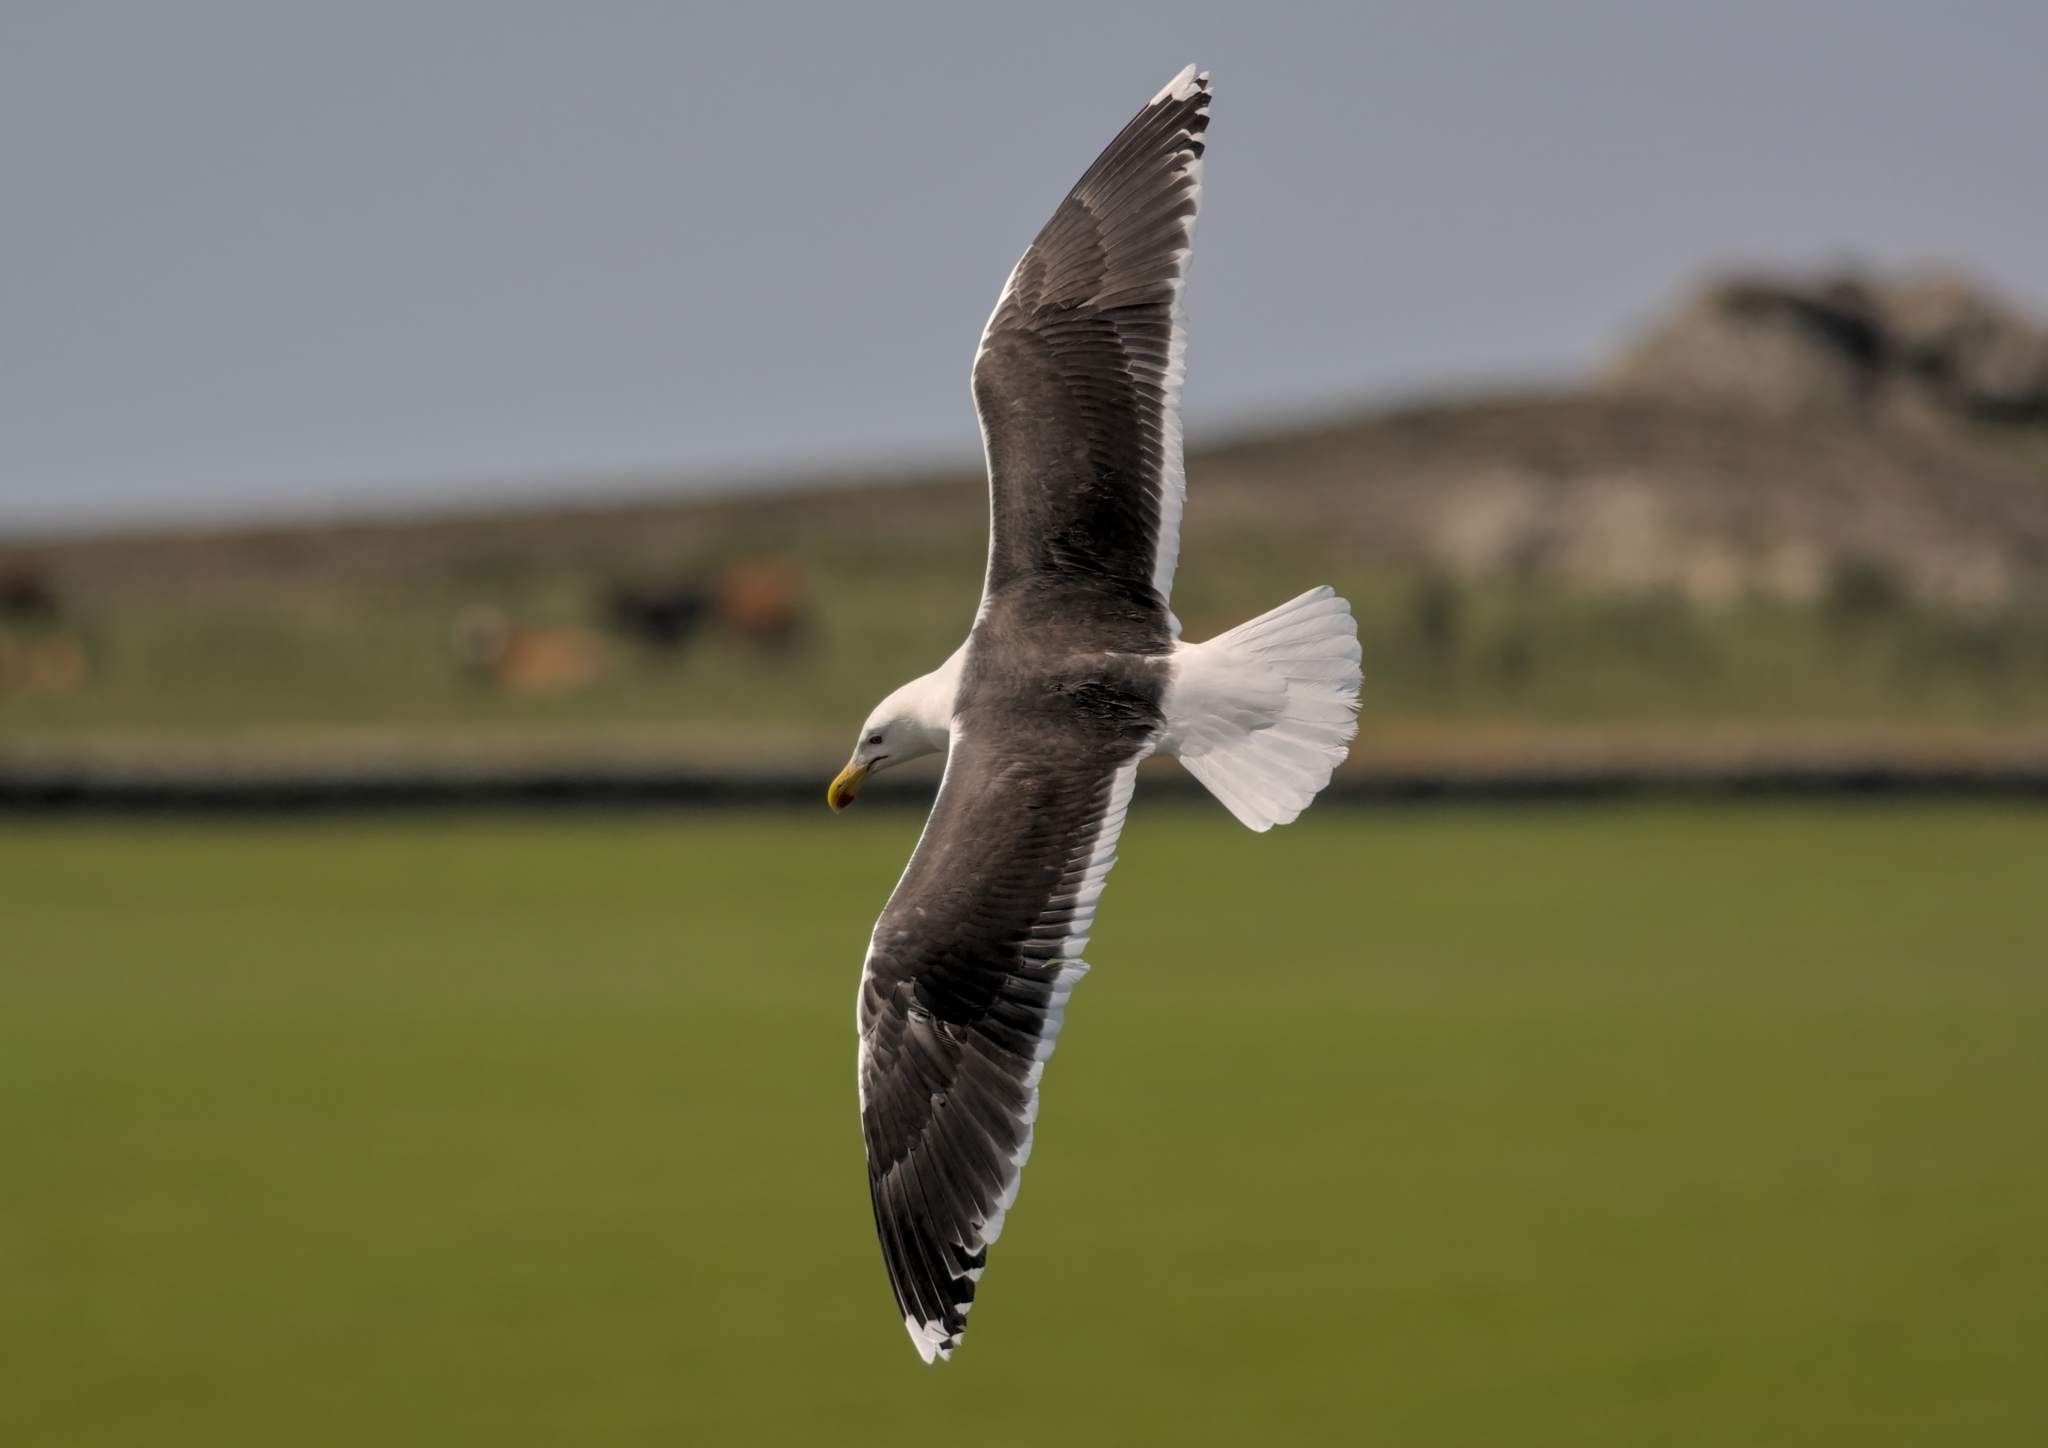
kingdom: Animalia
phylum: Chordata
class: Aves
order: Charadriiformes
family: Laridae
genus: Larus
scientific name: Larus marinus
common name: Great black-backed gull
